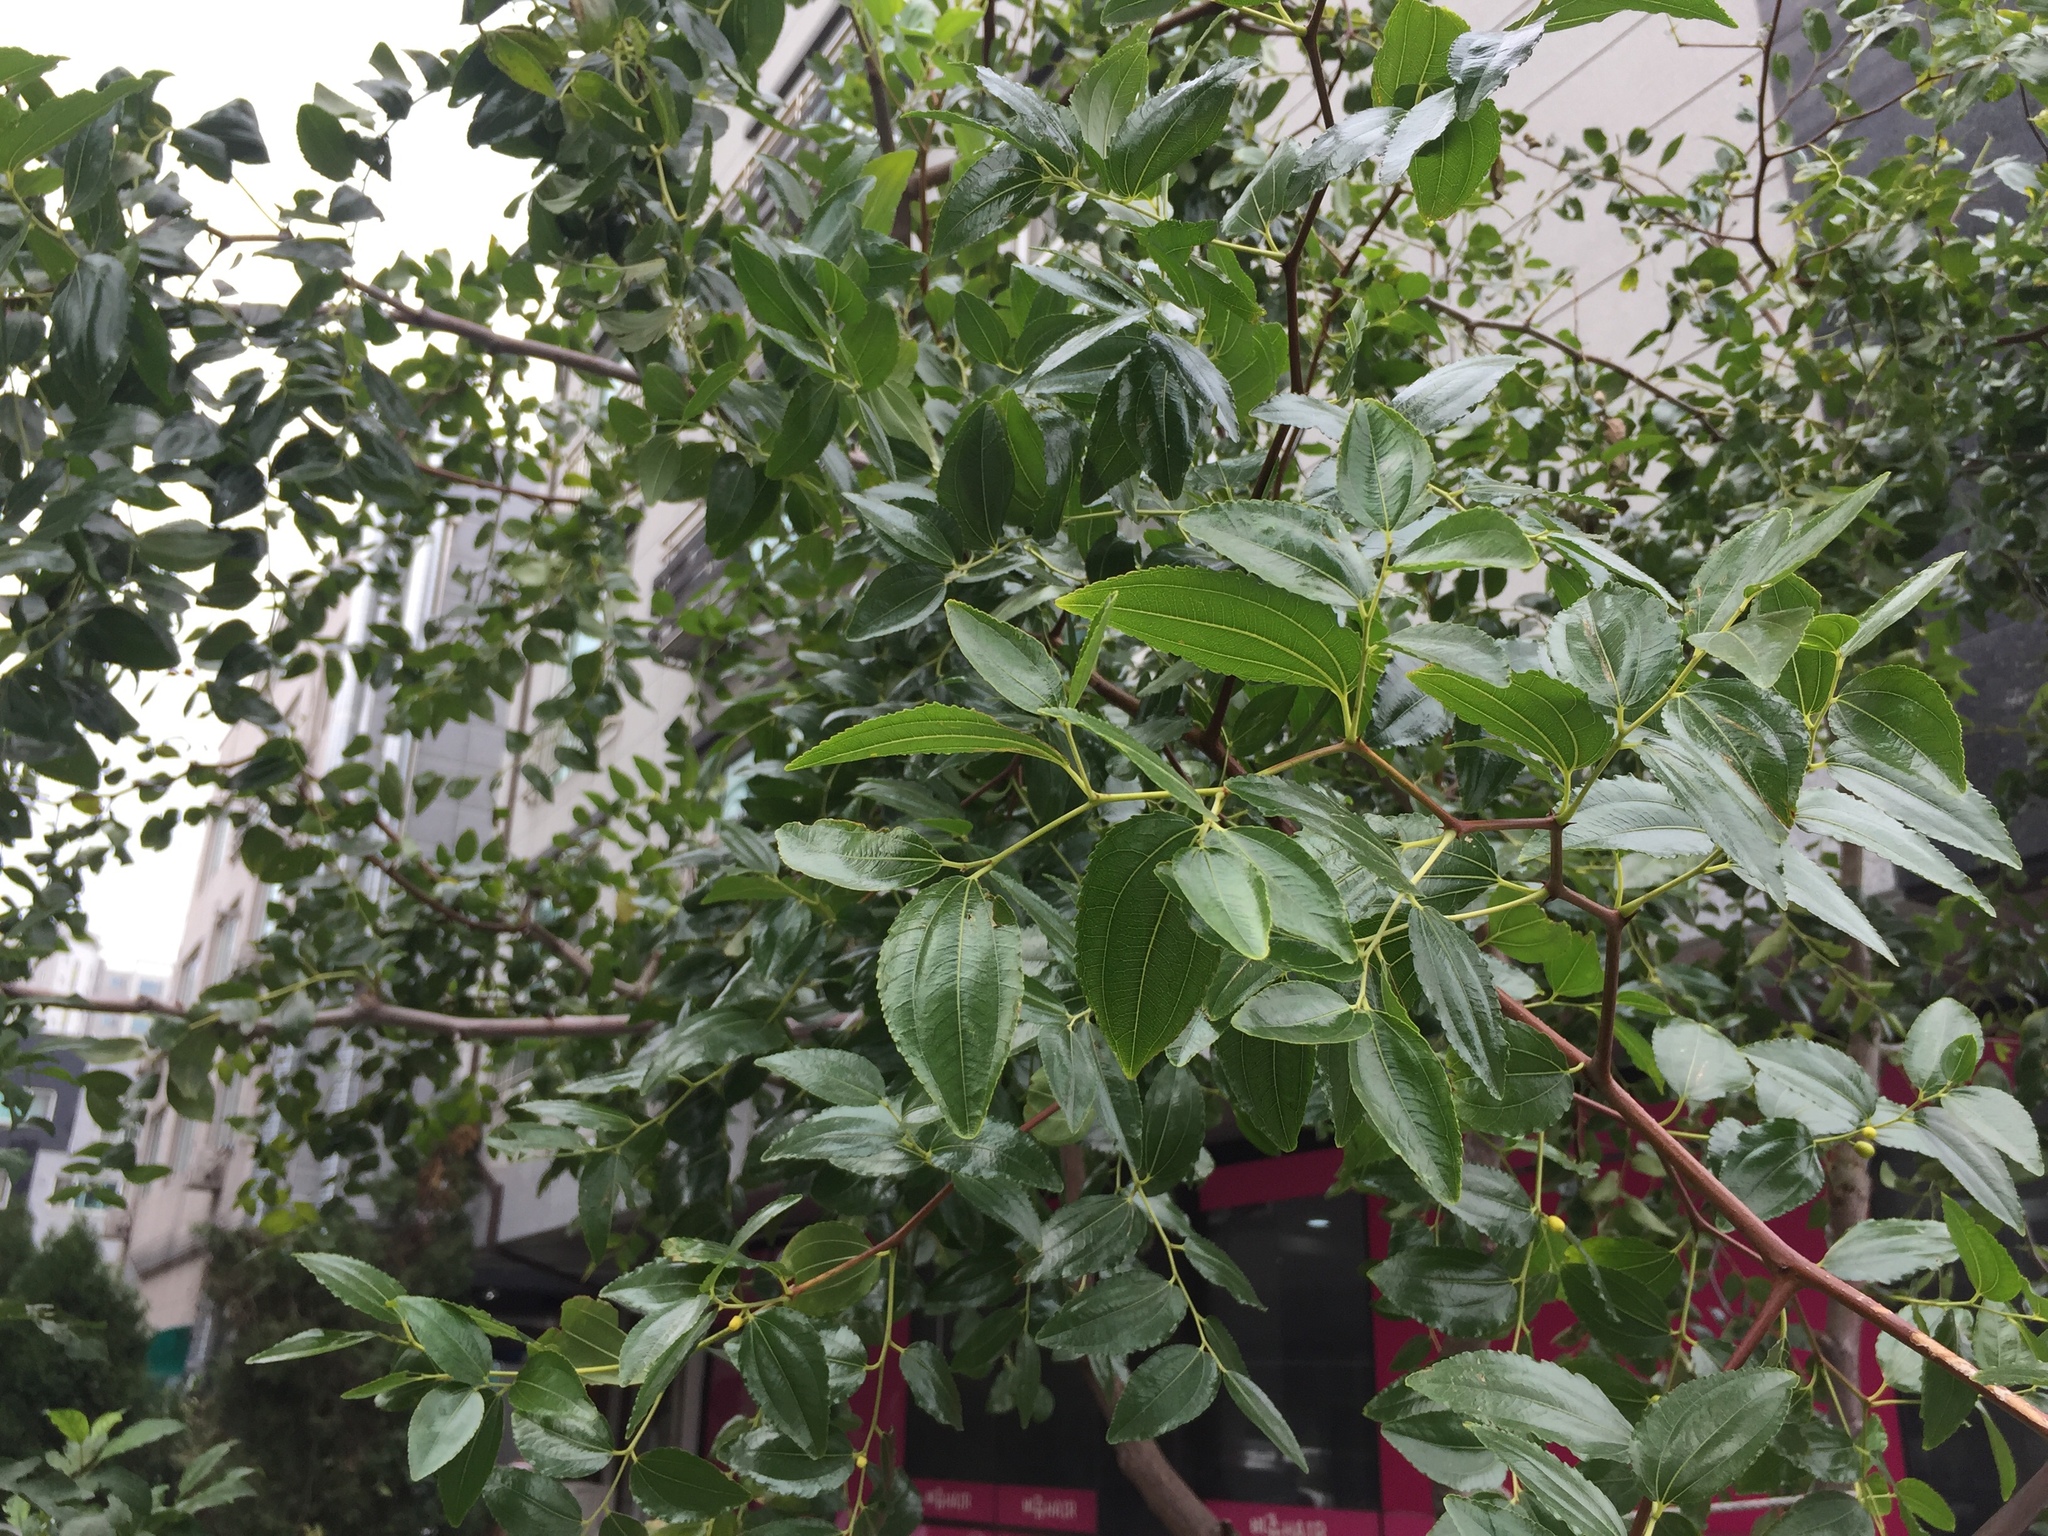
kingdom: Plantae
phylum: Tracheophyta
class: Magnoliopsida
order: Rosales
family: Rhamnaceae
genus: Ziziphus
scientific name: Ziziphus jujuba
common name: Jujube red date
